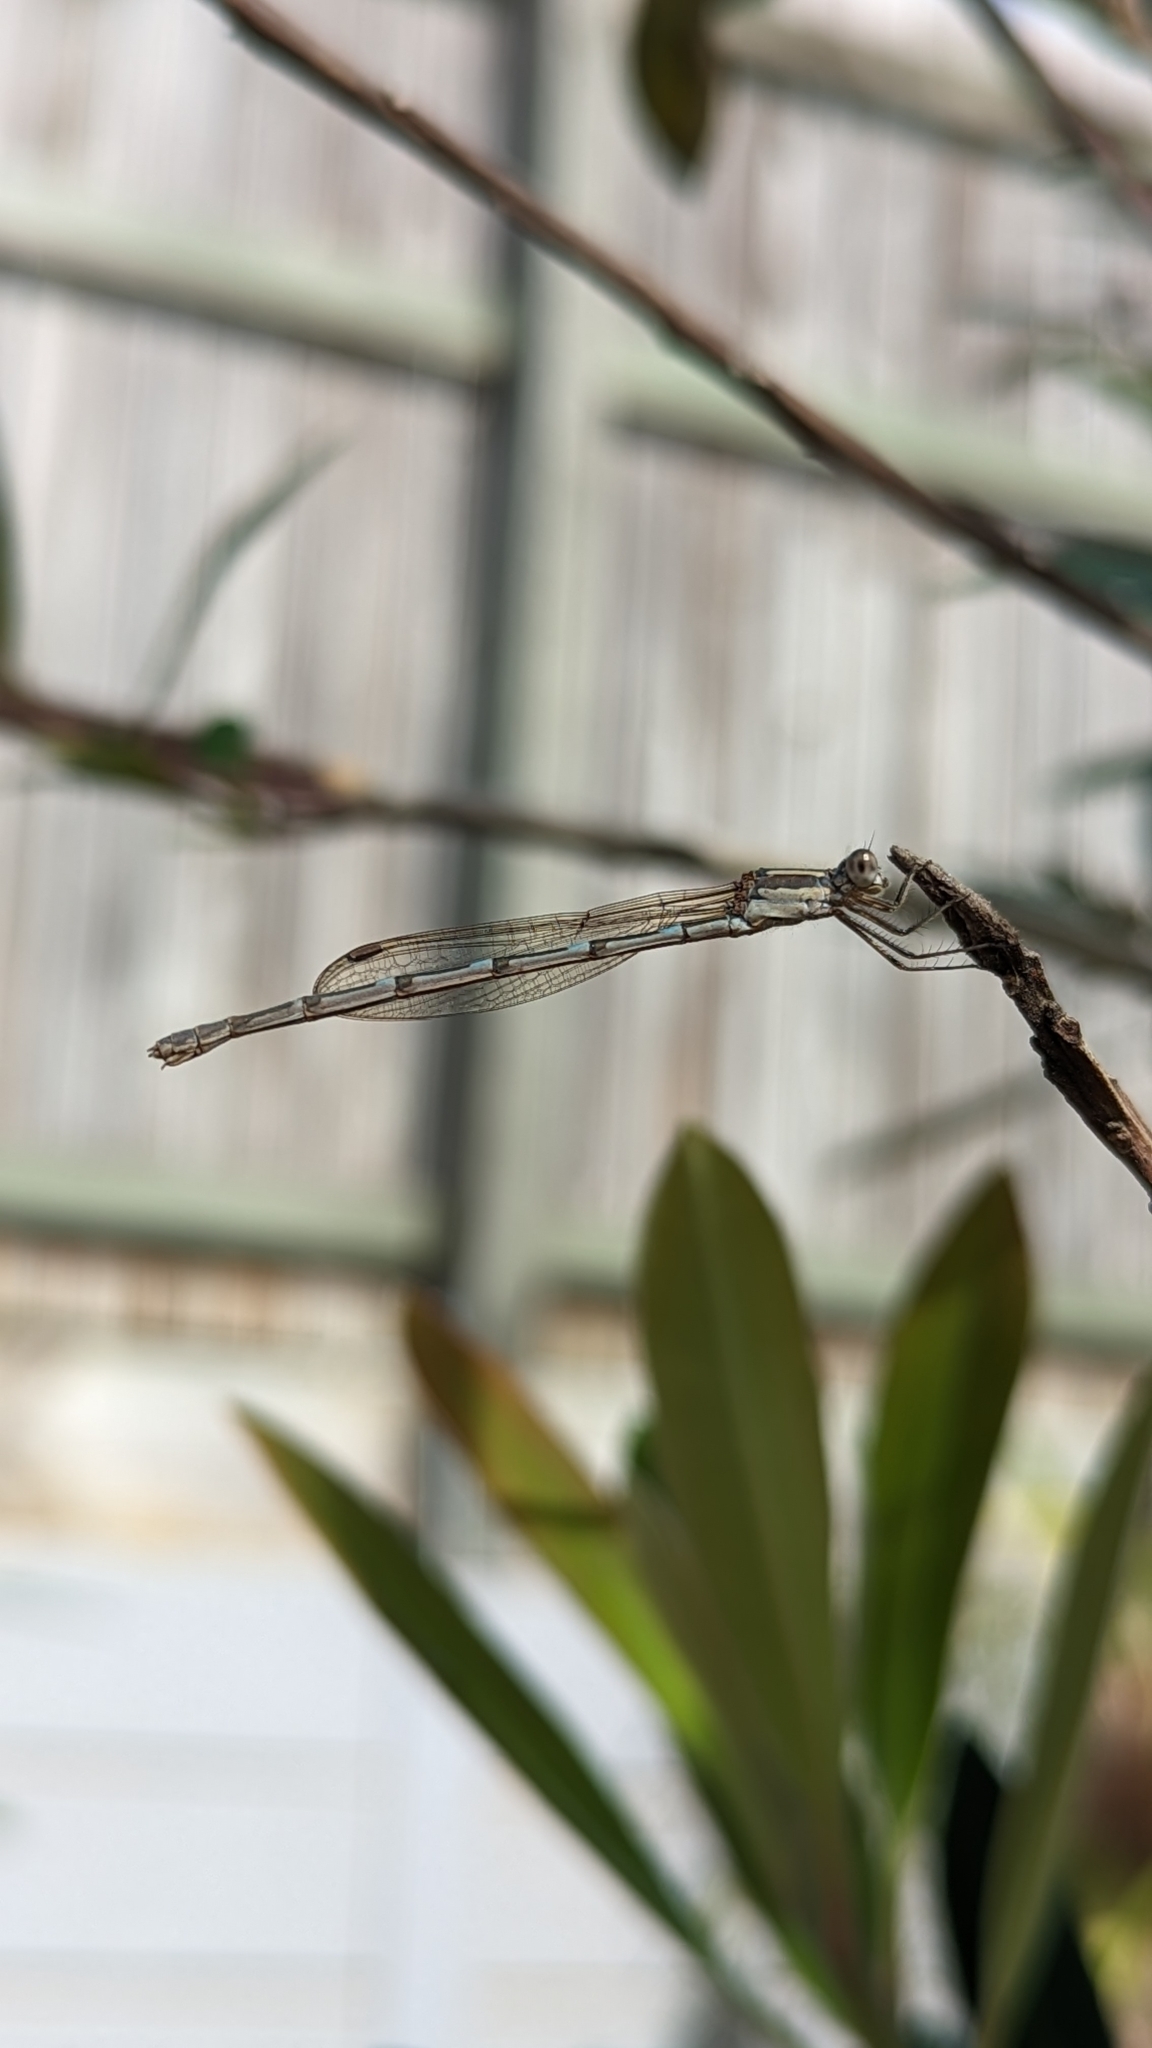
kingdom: Animalia
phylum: Arthropoda
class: Insecta
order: Odonata
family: Lestidae
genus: Austrolestes
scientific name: Austrolestes leda
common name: Wandering ringtail
